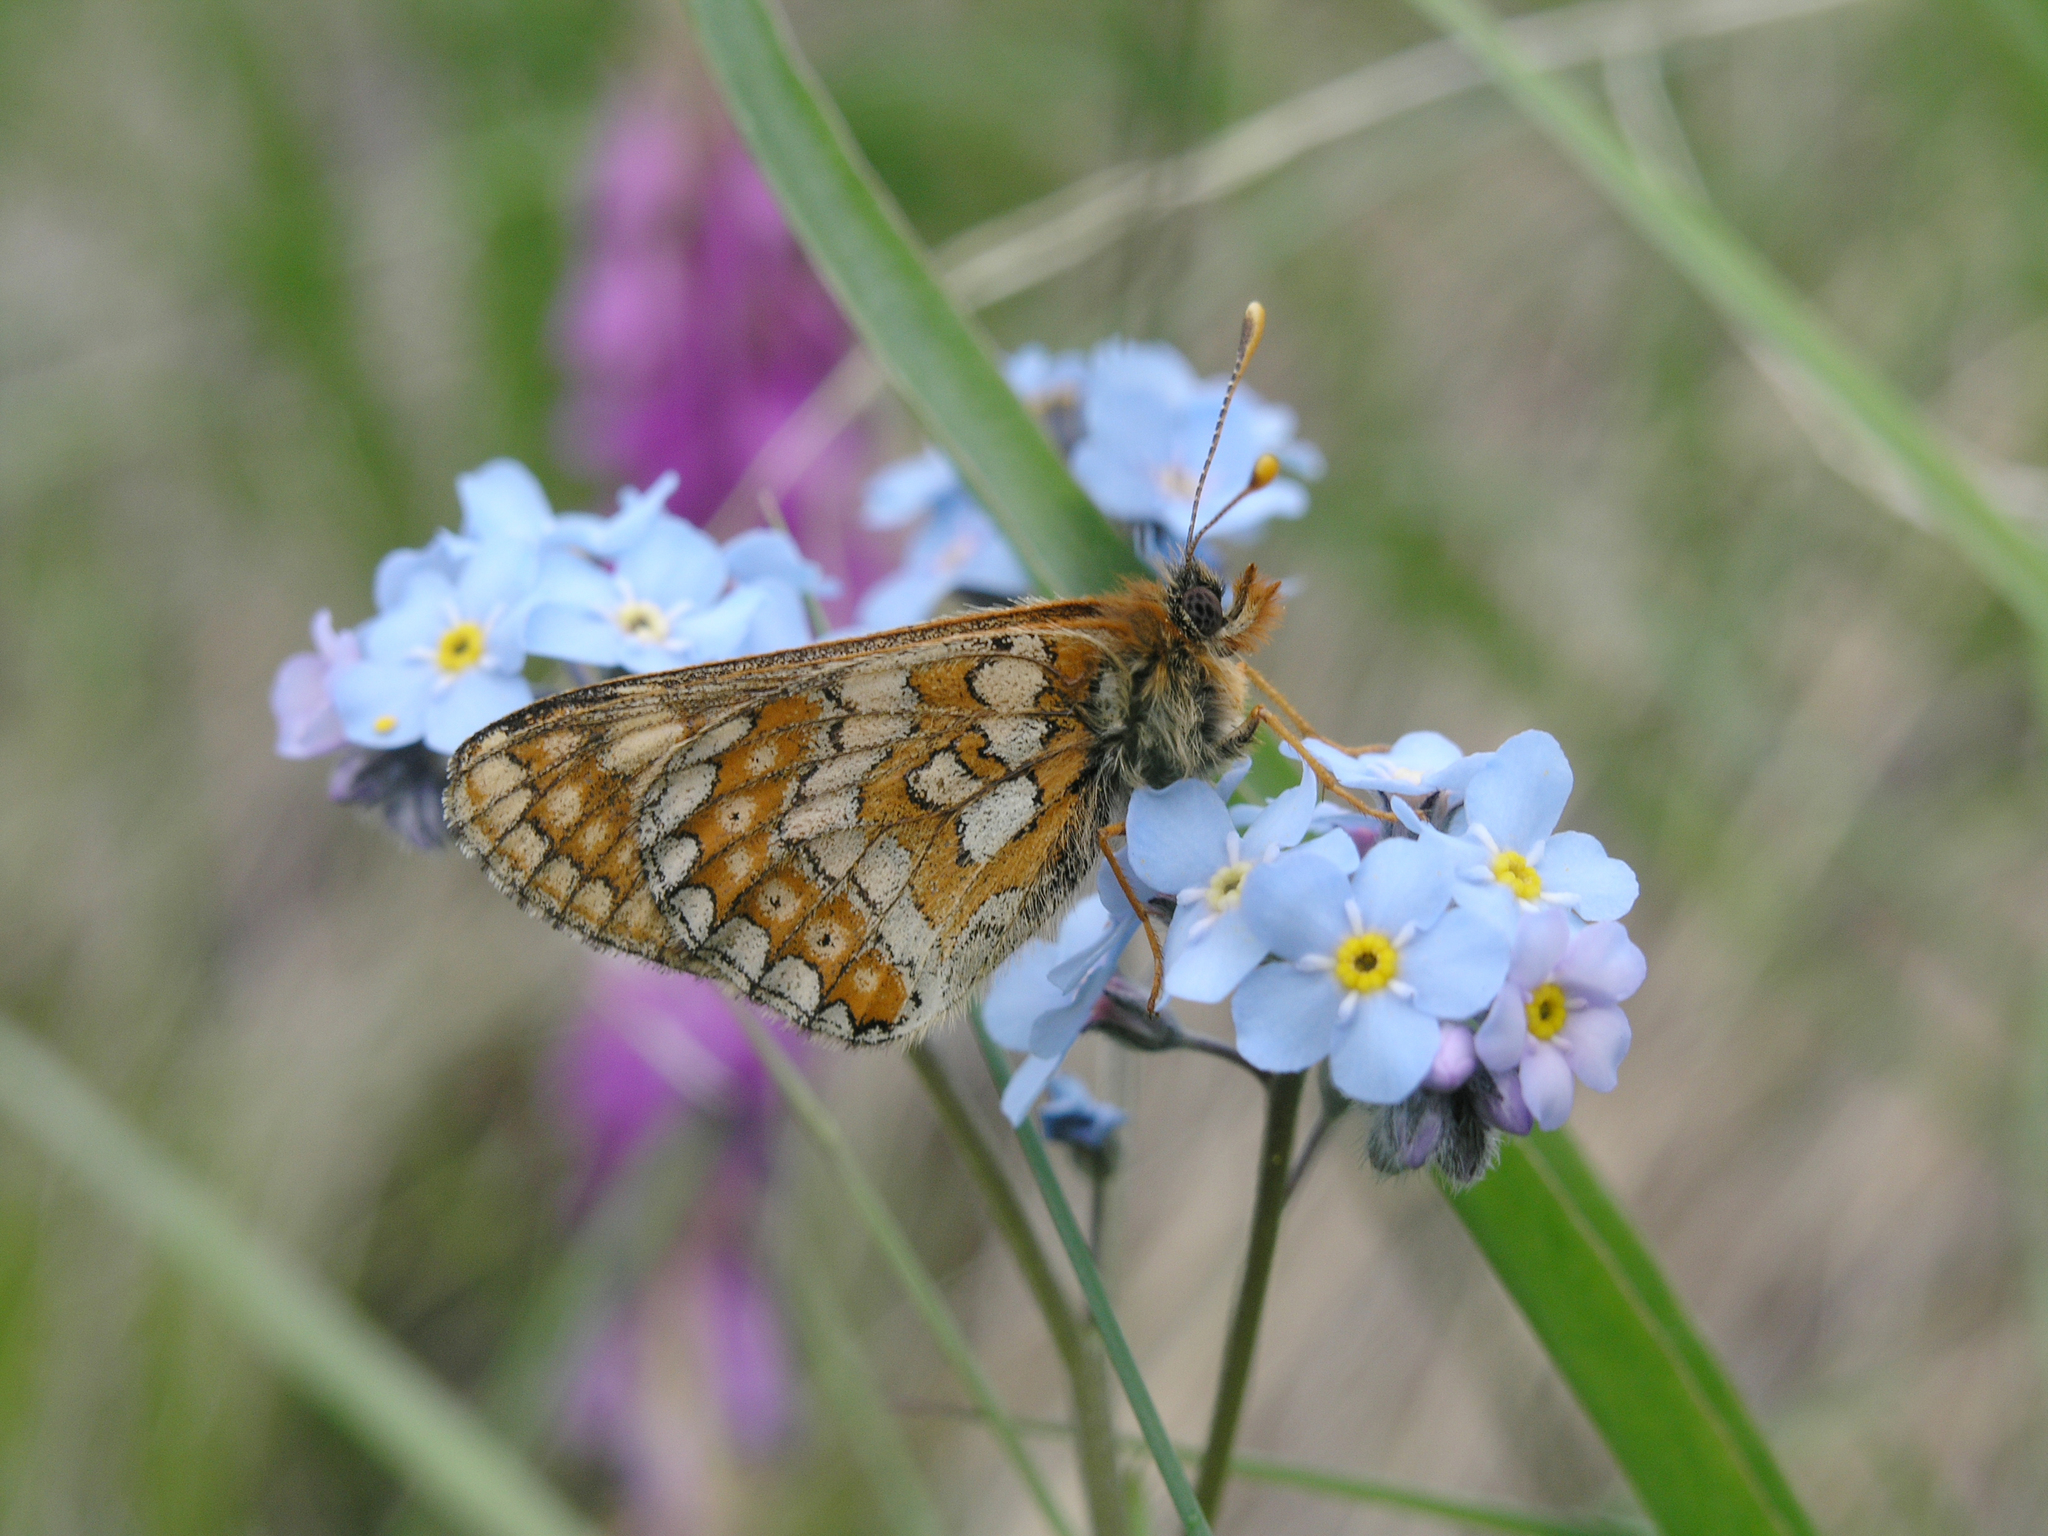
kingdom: Animalia
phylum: Arthropoda
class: Insecta
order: Lepidoptera
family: Nymphalidae
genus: Euphydryas
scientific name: Euphydryas aurinia
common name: Marsh fritillary
